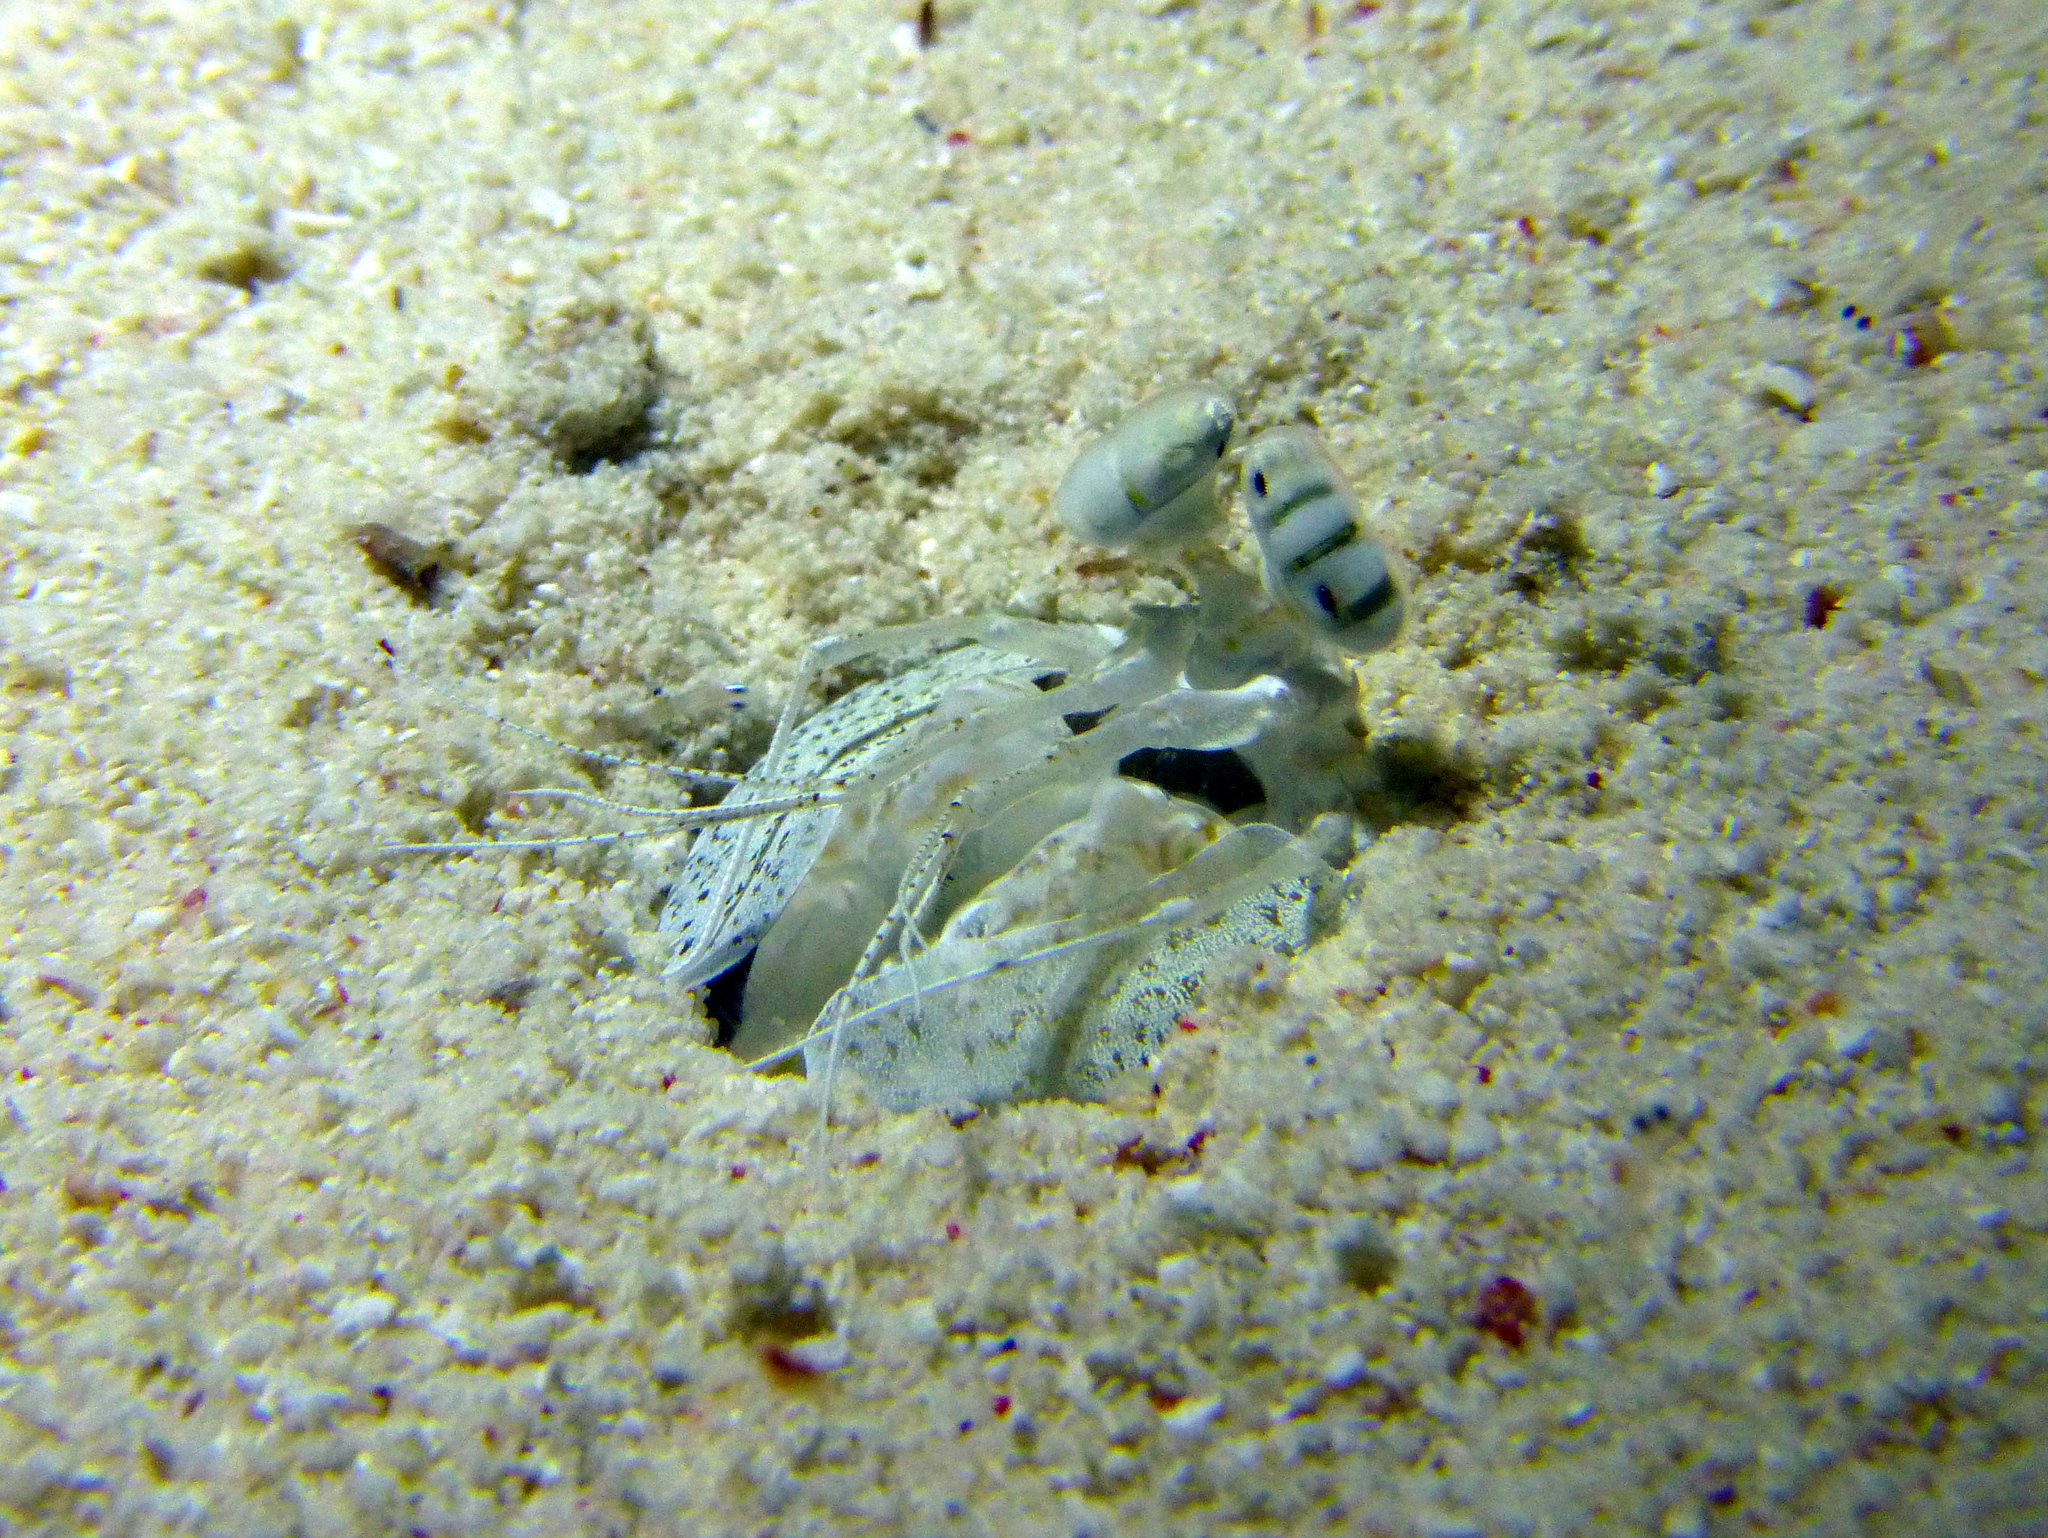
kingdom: Animalia
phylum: Arthropoda
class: Malacostraca
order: Stomatopoda
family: Lysiosquillidae
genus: Lysiosquilla
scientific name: Lysiosquilla sulcata
